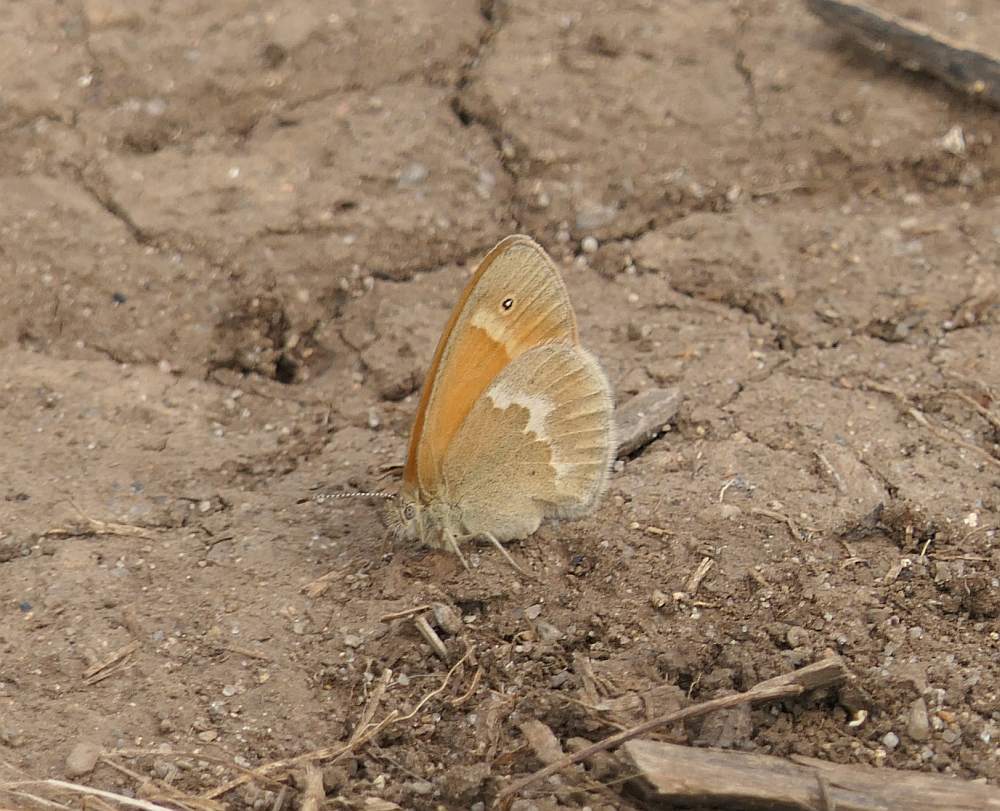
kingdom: Animalia
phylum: Arthropoda
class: Insecta
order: Lepidoptera
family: Nymphalidae
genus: Coenonympha
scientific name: Coenonympha california
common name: Common ringlet
